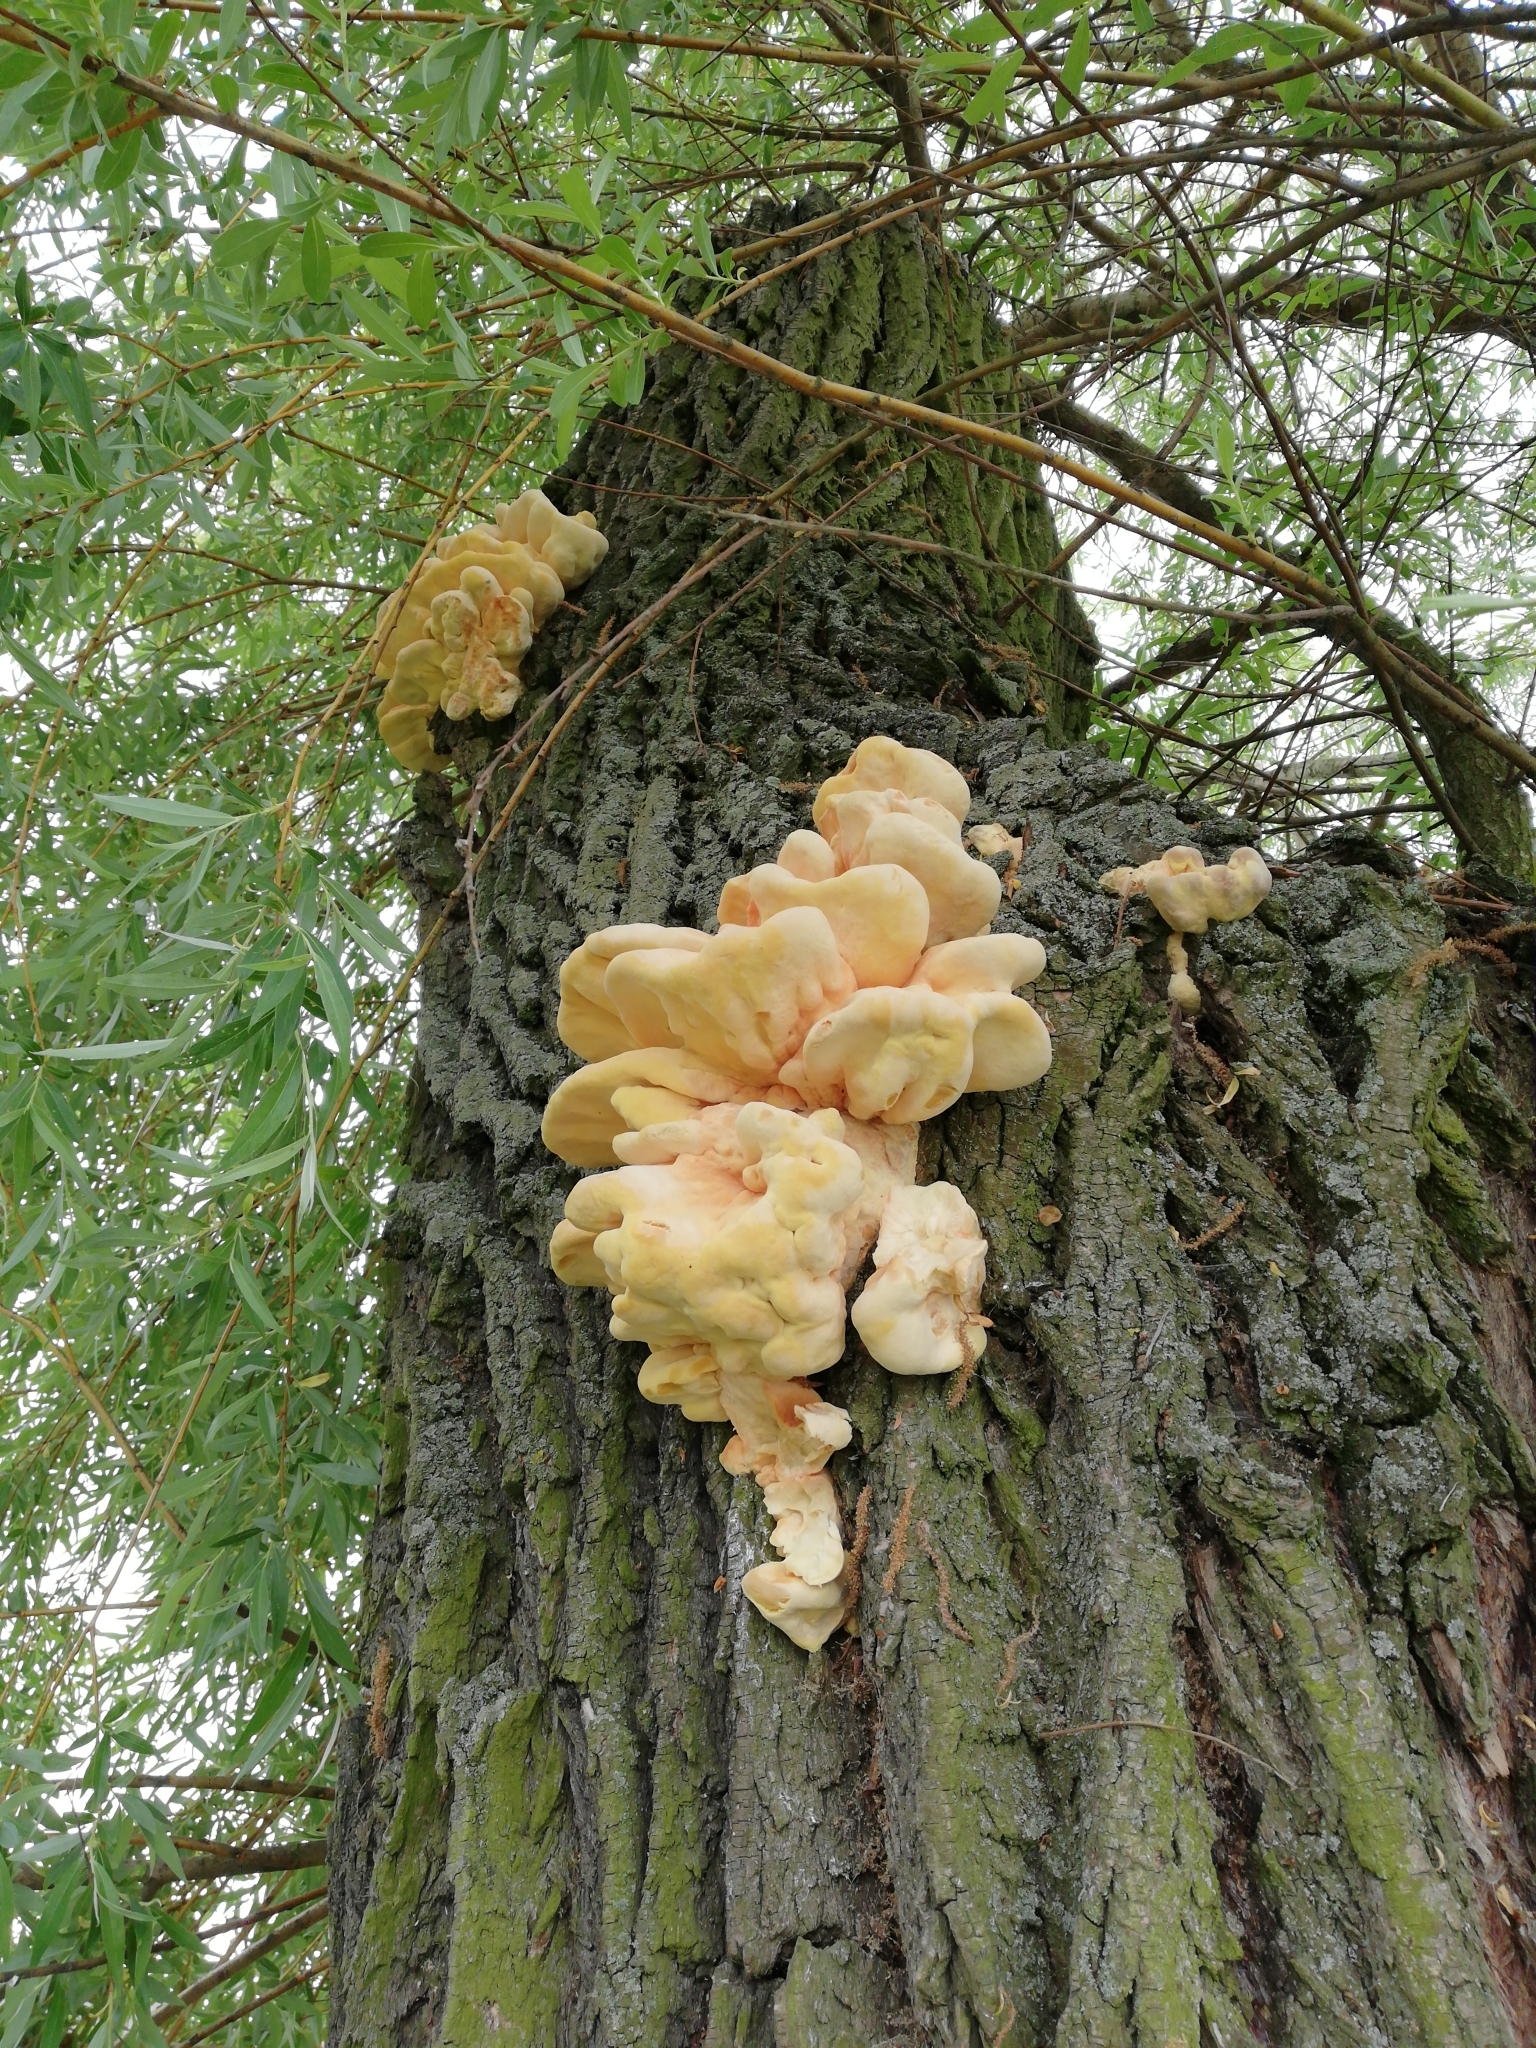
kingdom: Fungi
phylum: Basidiomycota
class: Agaricomycetes
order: Polyporales
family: Laetiporaceae
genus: Laetiporus
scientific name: Laetiporus sulphureus
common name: Chicken of the woods
